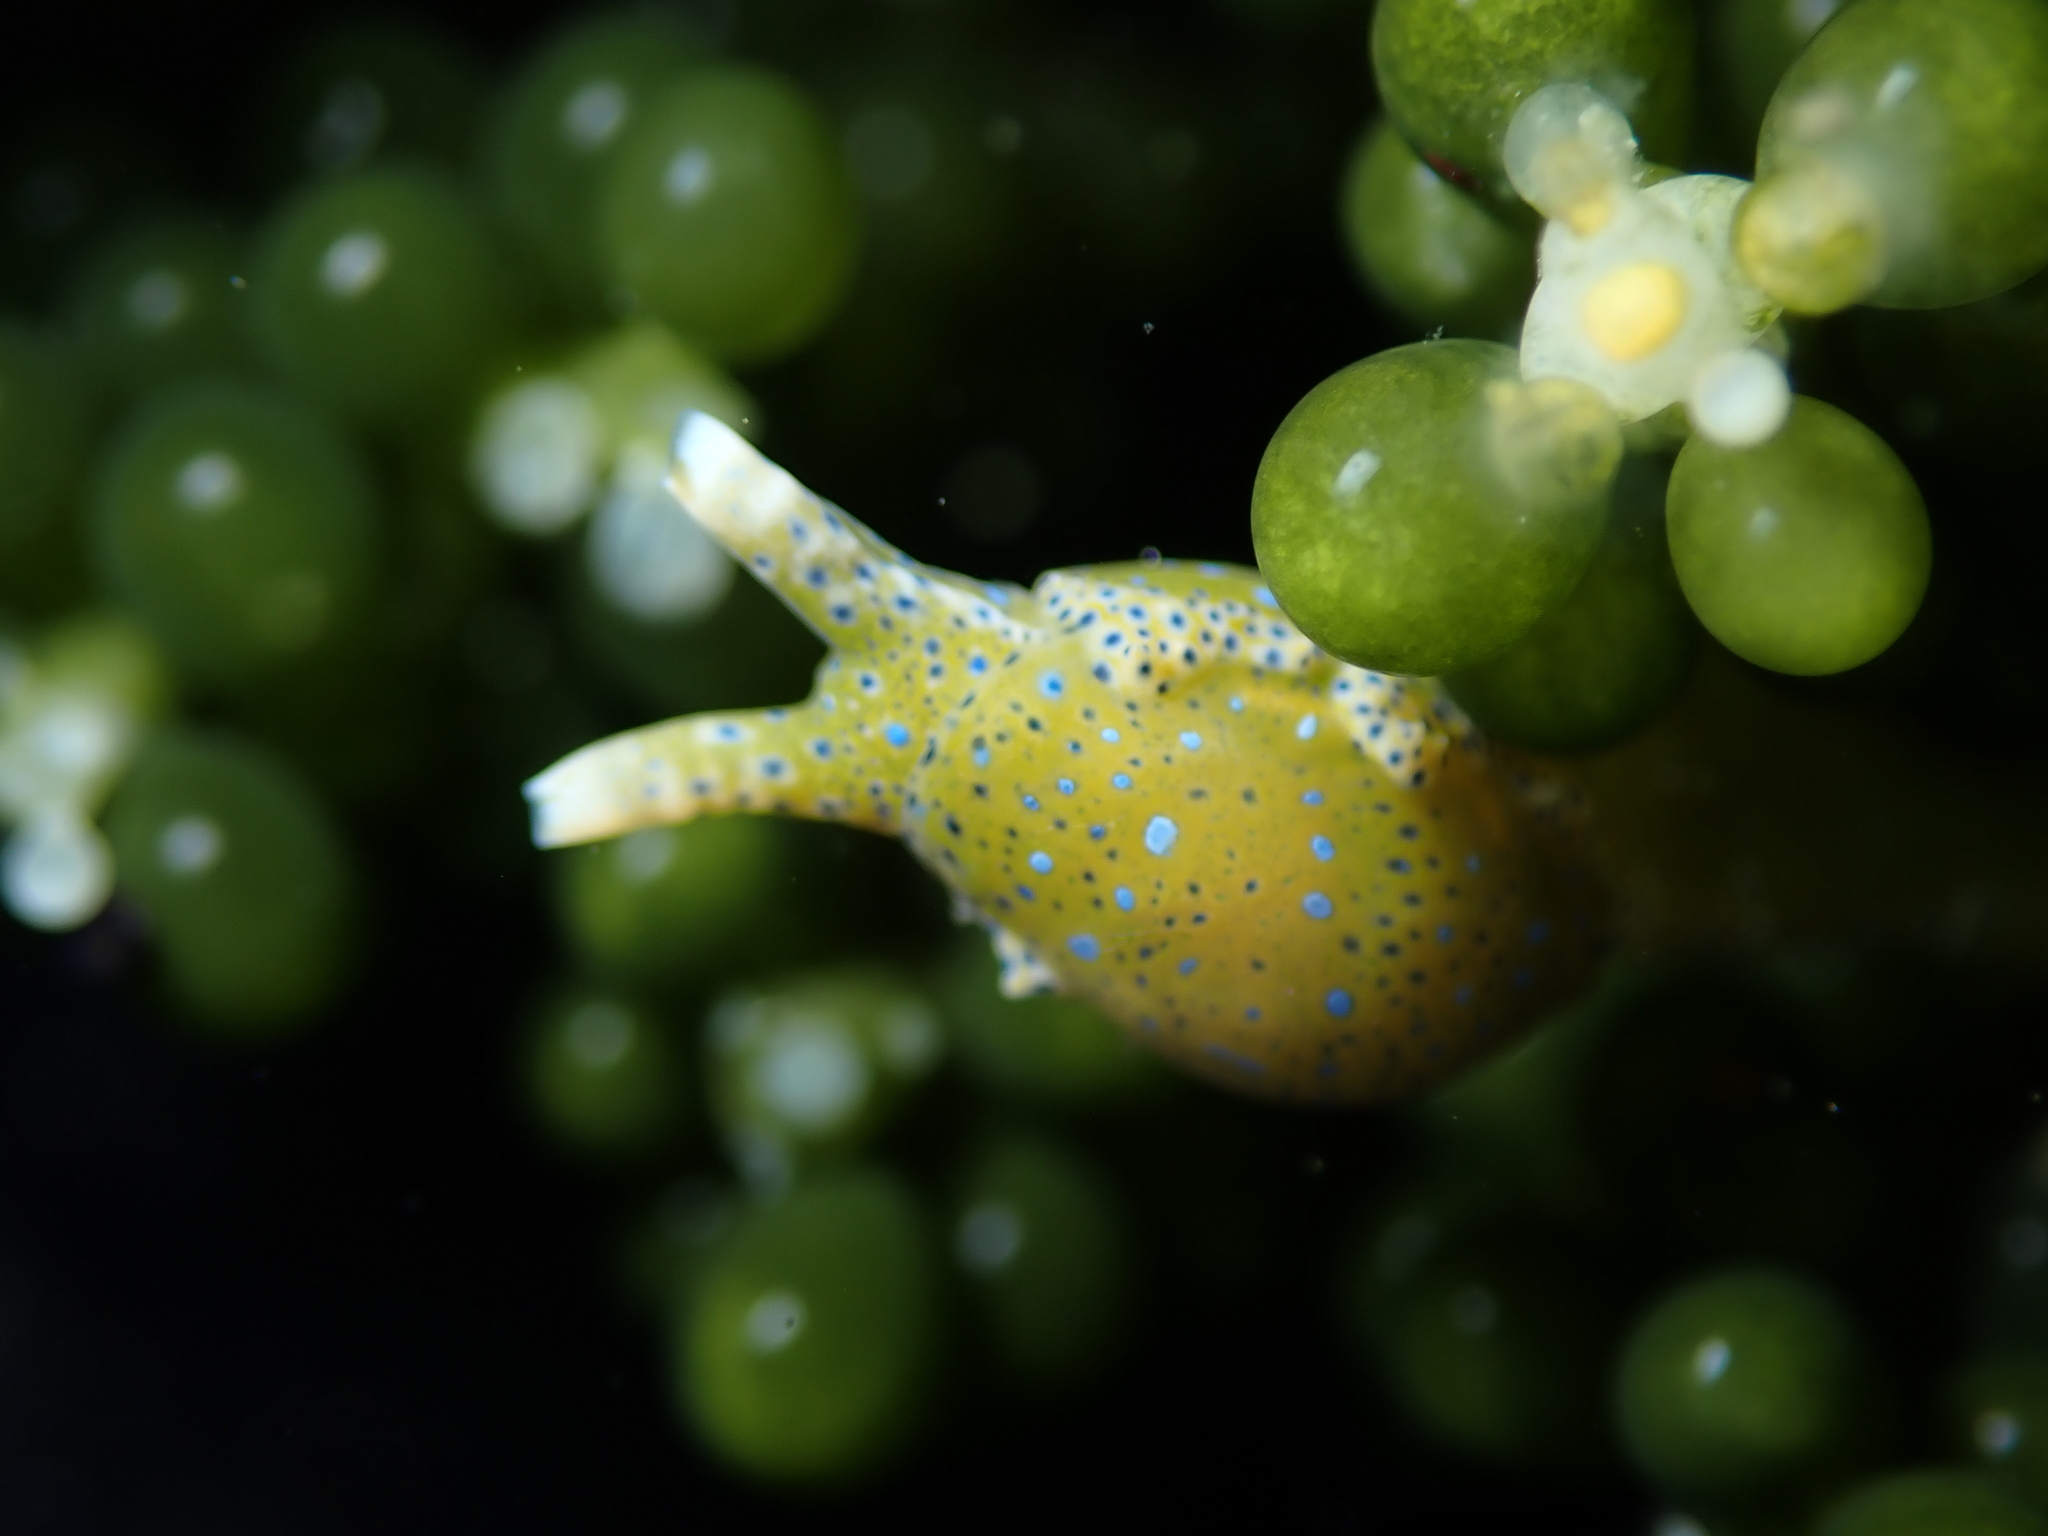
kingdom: Animalia
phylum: Mollusca
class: Gastropoda
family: Oxynoidae
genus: Oxynoe
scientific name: Oxynoe viridis
